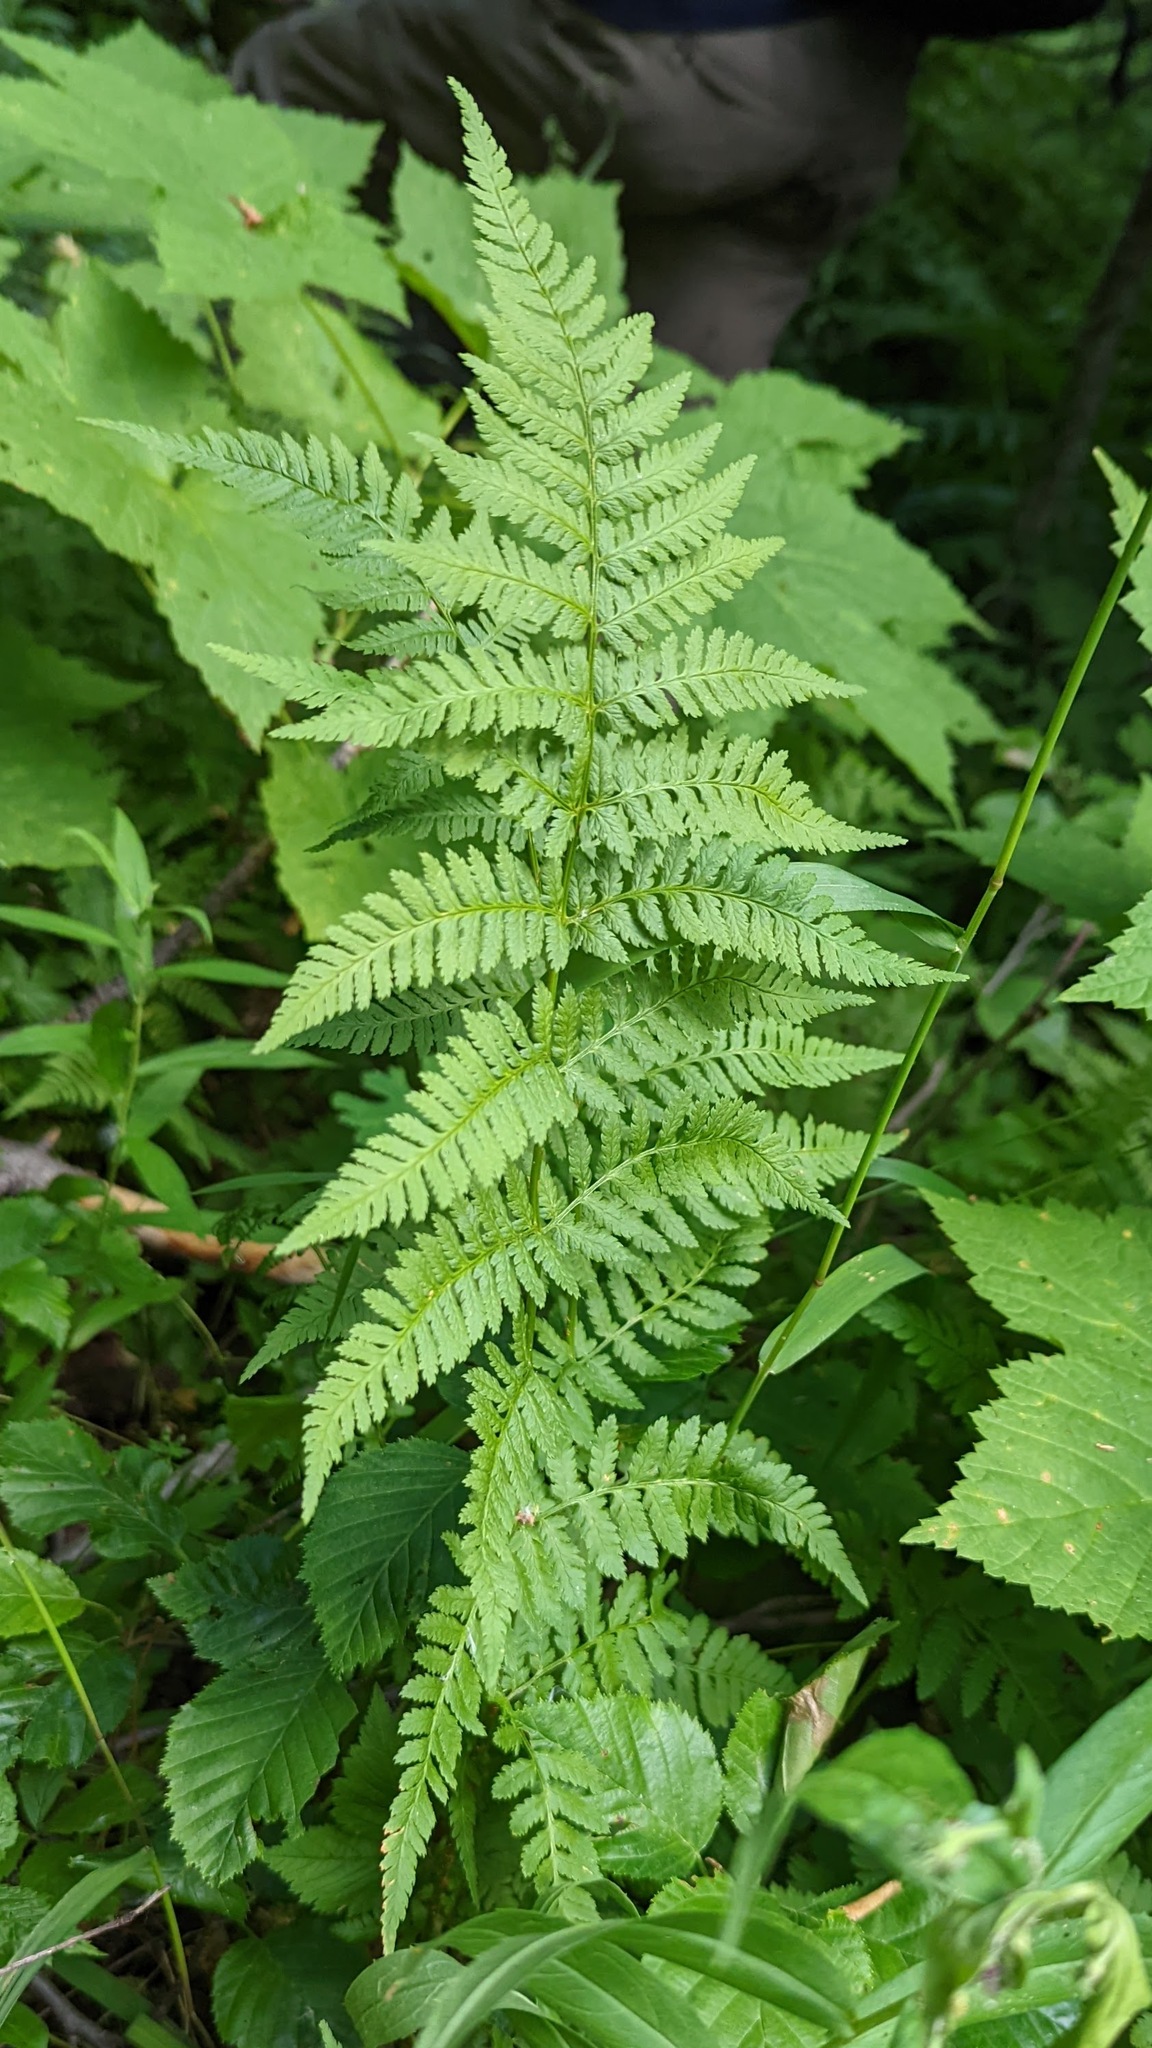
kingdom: Plantae
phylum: Tracheophyta
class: Polypodiopsida
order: Polypodiales
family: Dryopteridaceae
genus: Dryopteris
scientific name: Dryopteris carthusiana
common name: Narrow buckler-fern
